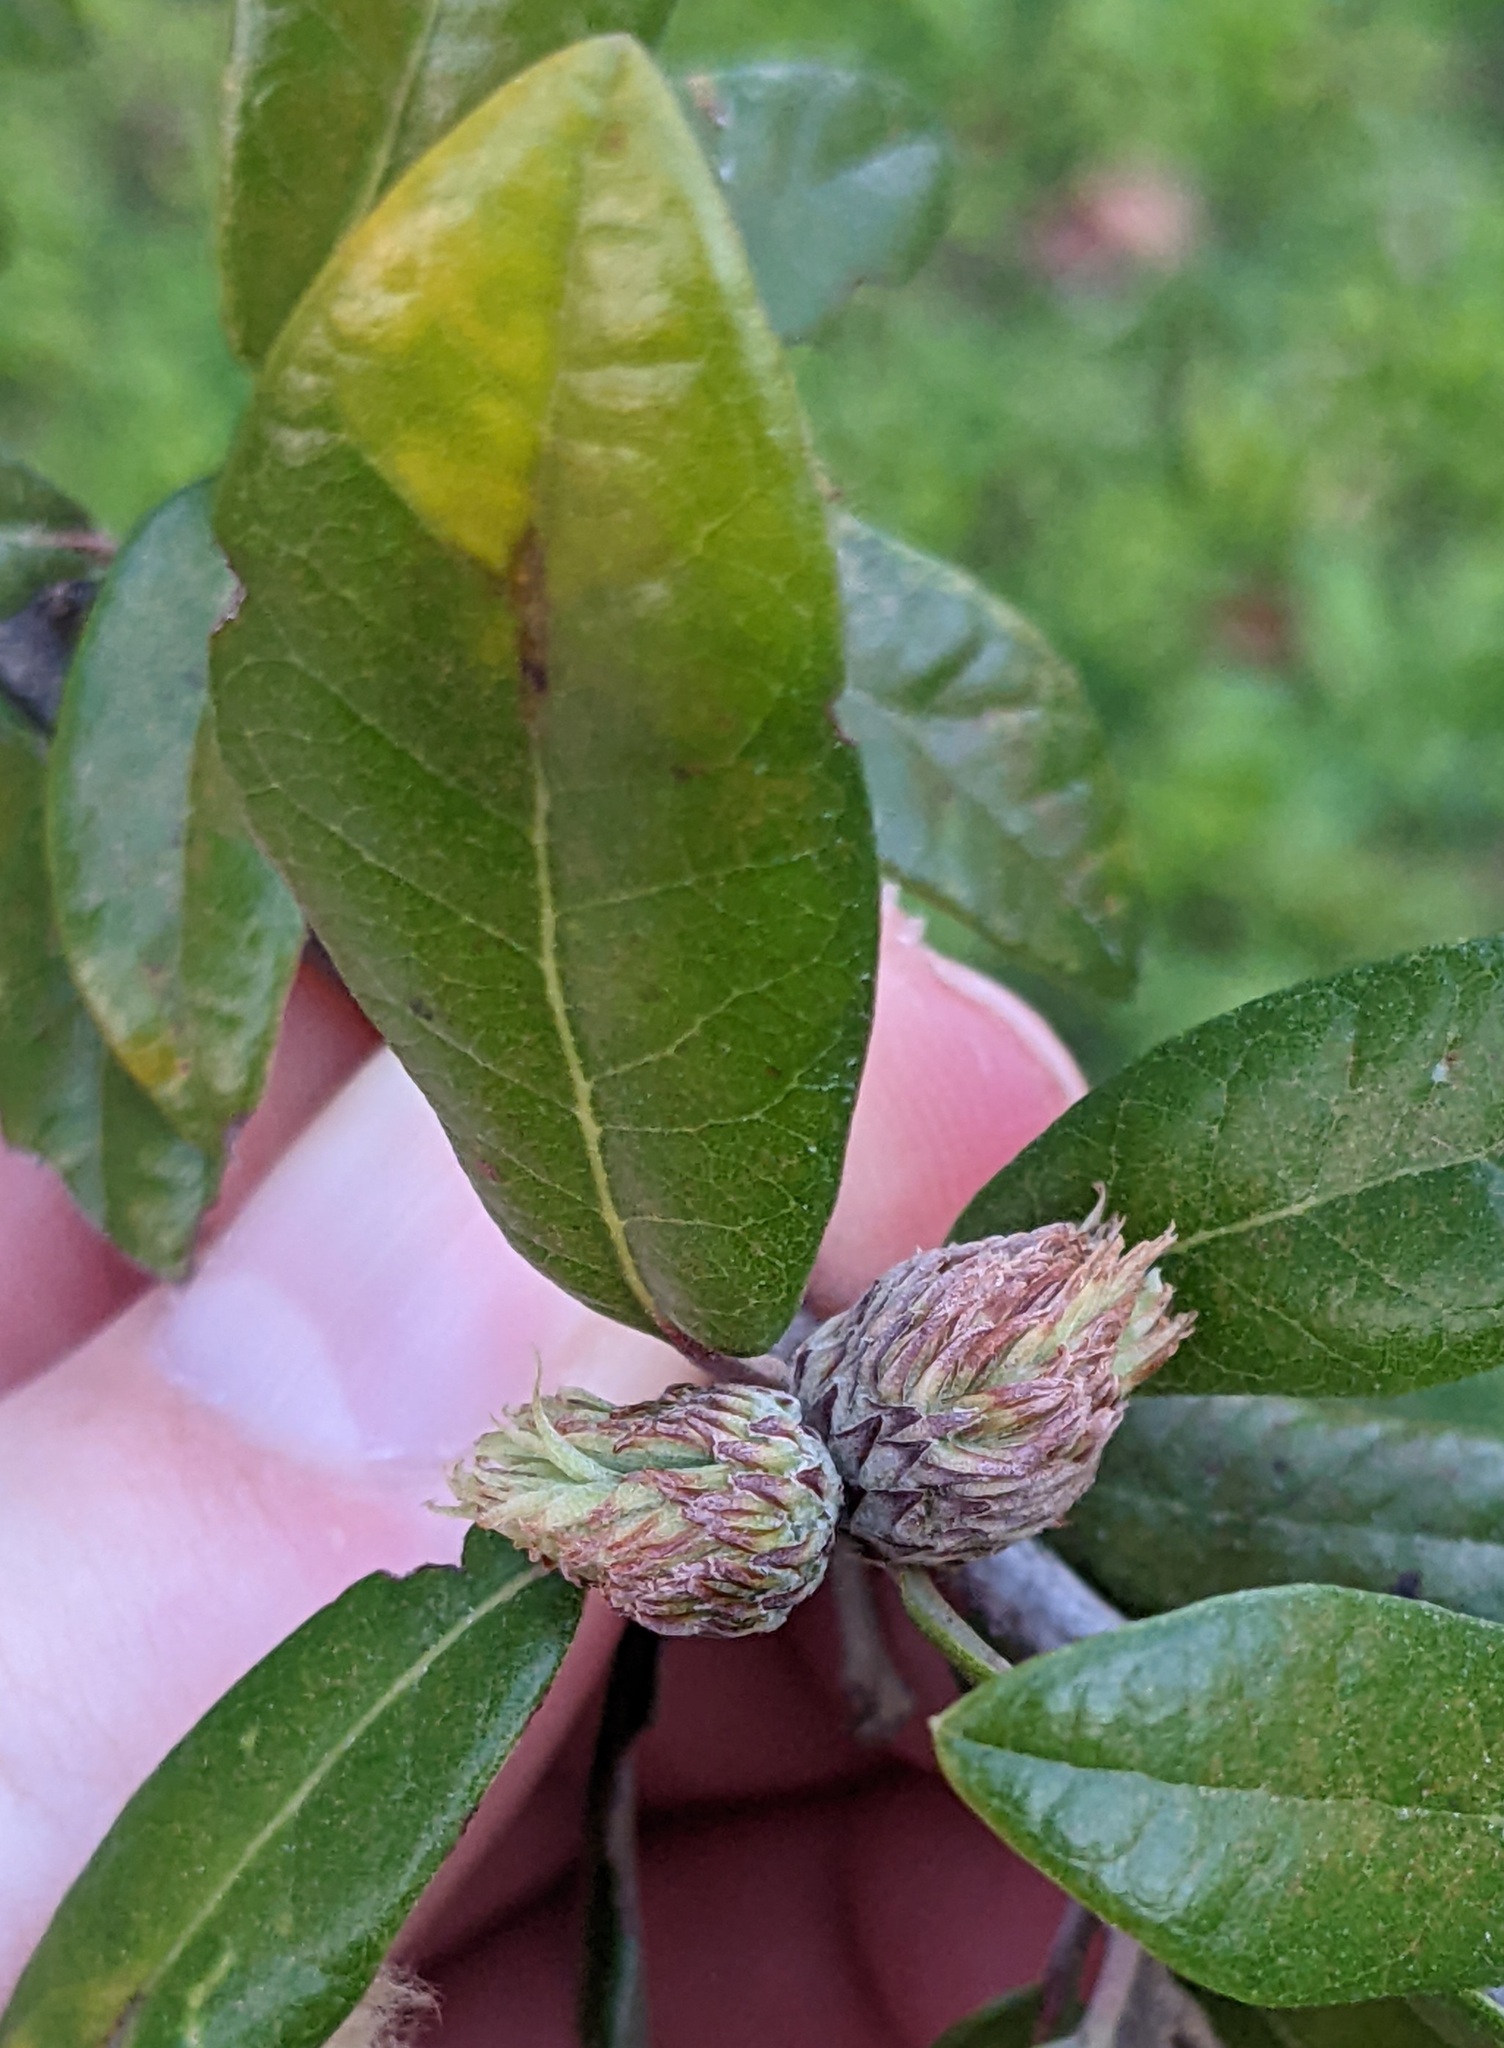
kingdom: Animalia
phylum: Arthropoda
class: Insecta
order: Hymenoptera
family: Cynipidae
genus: Andricus
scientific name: Andricus quercusfoliatus
